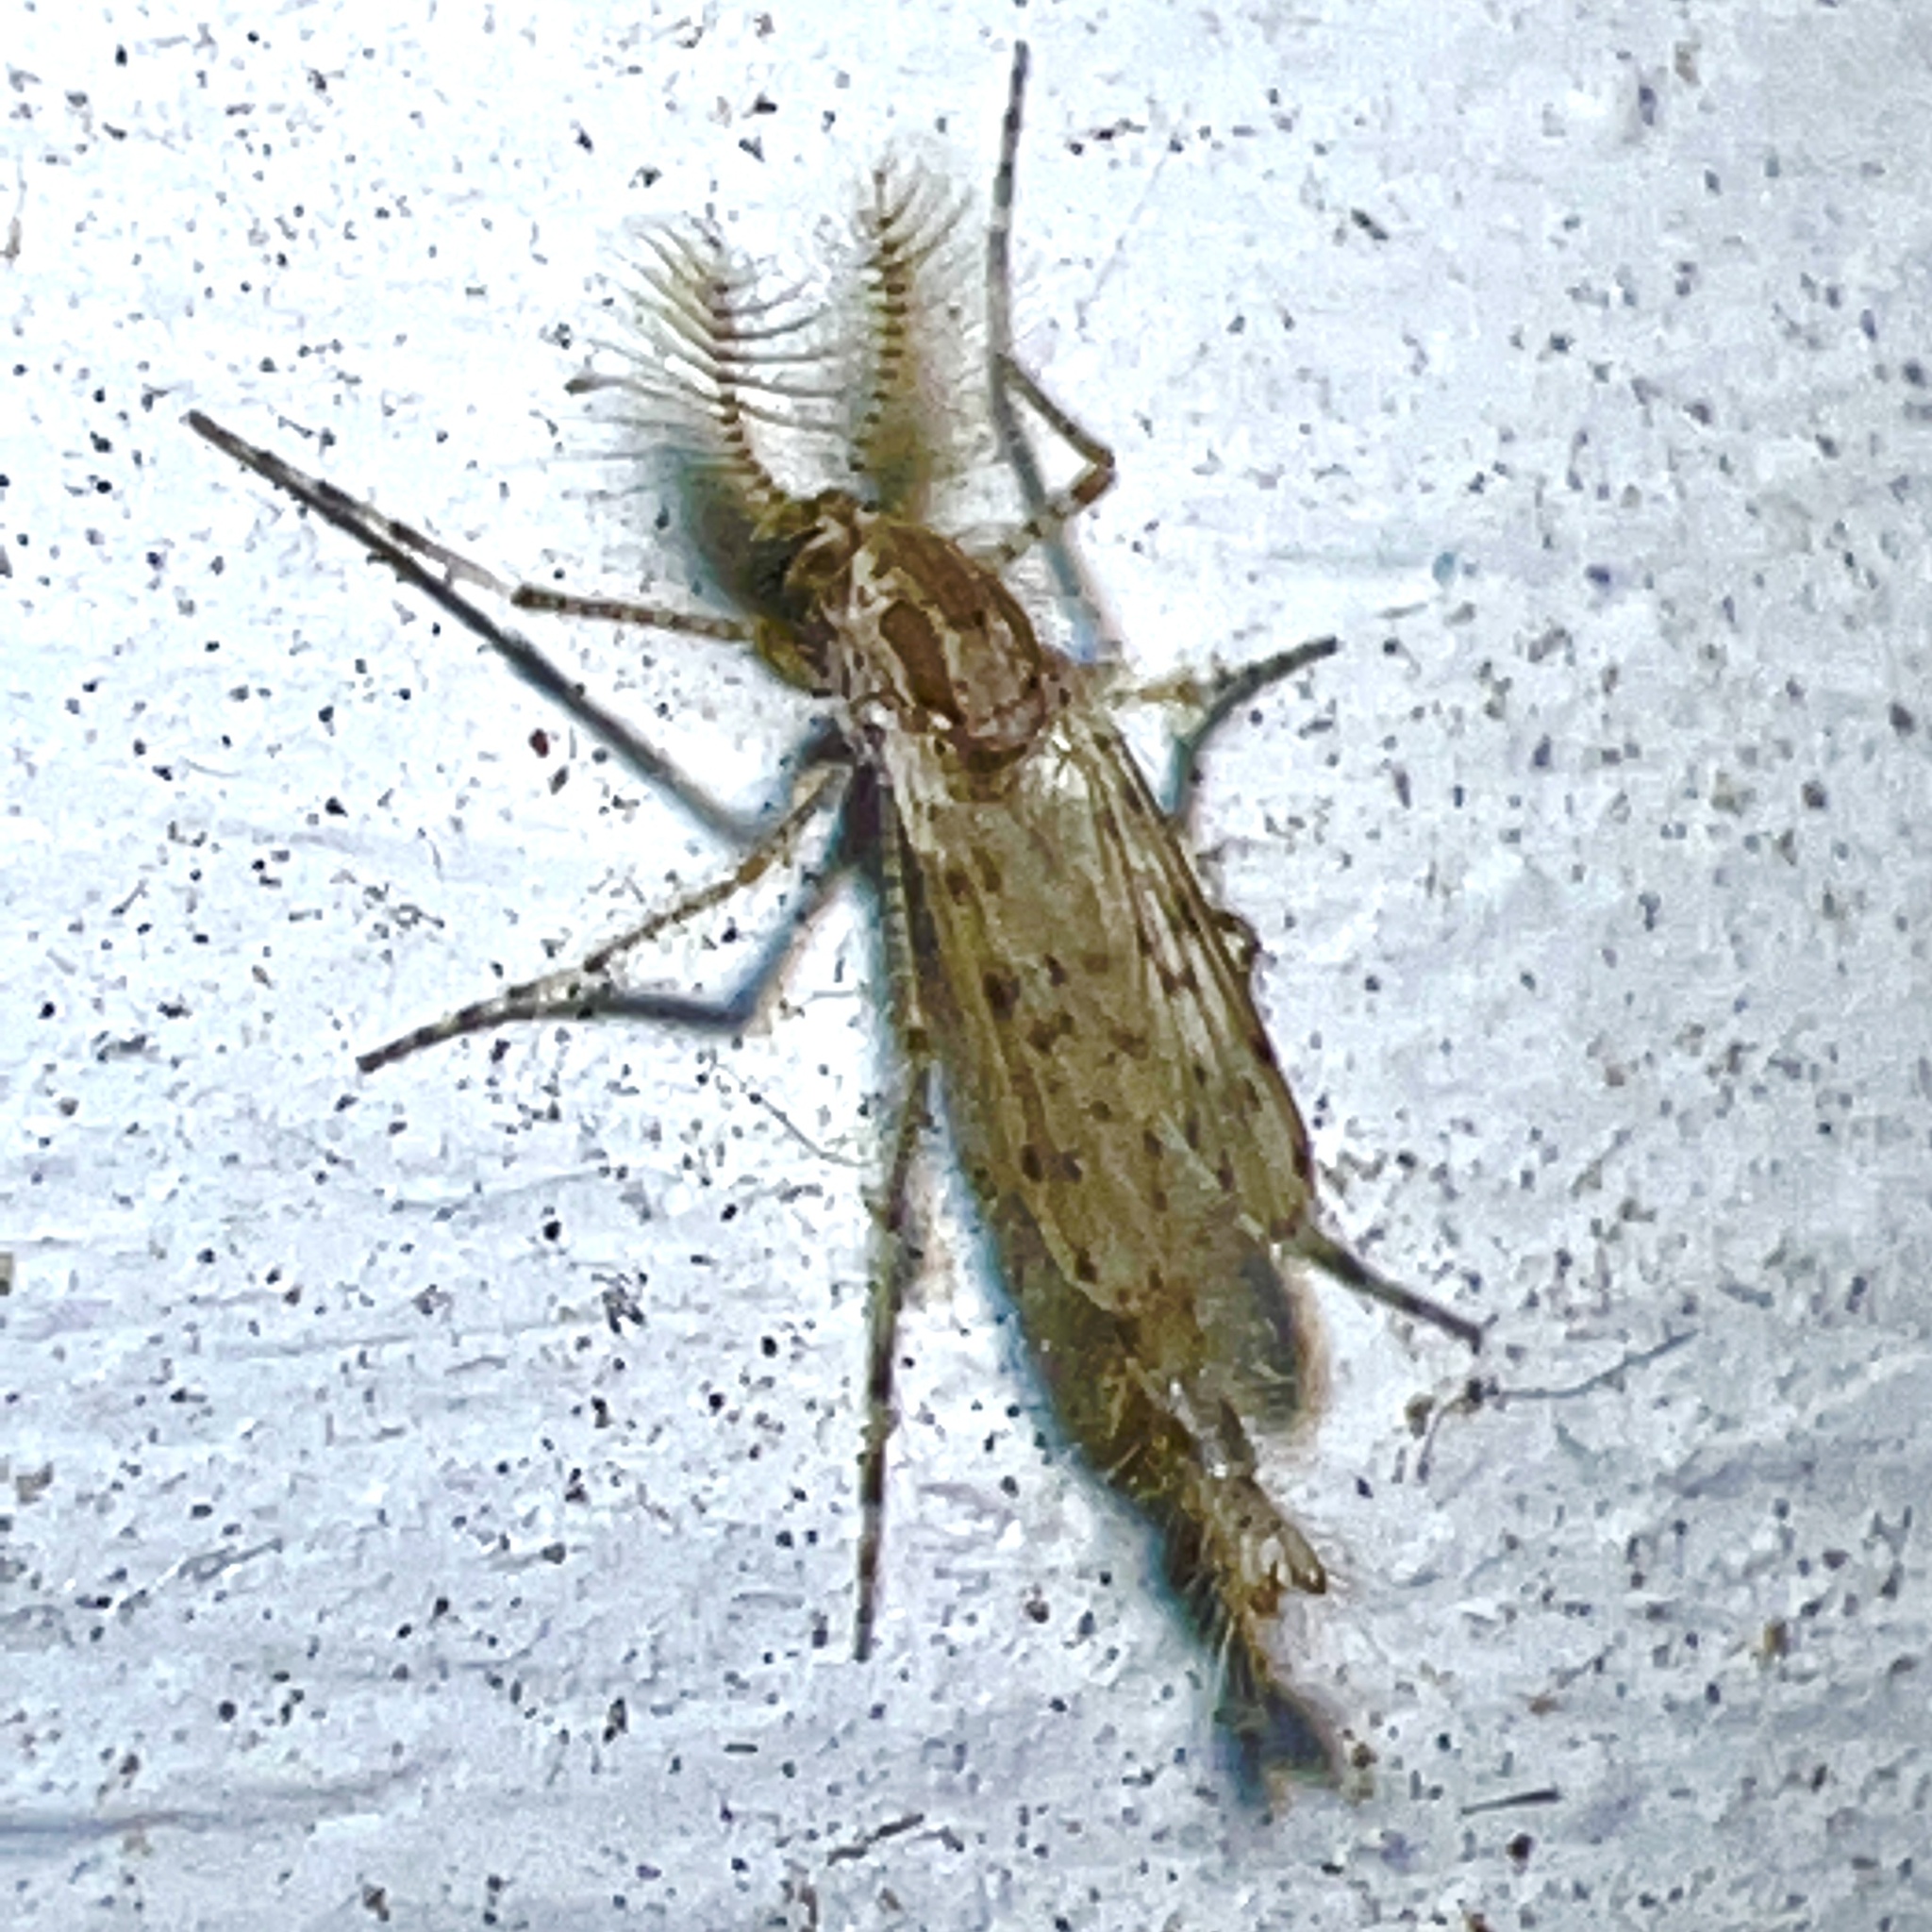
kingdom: Animalia
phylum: Arthropoda
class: Insecta
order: Diptera
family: Chaoboridae
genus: Chaoborus
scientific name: Chaoborus punctipennis
